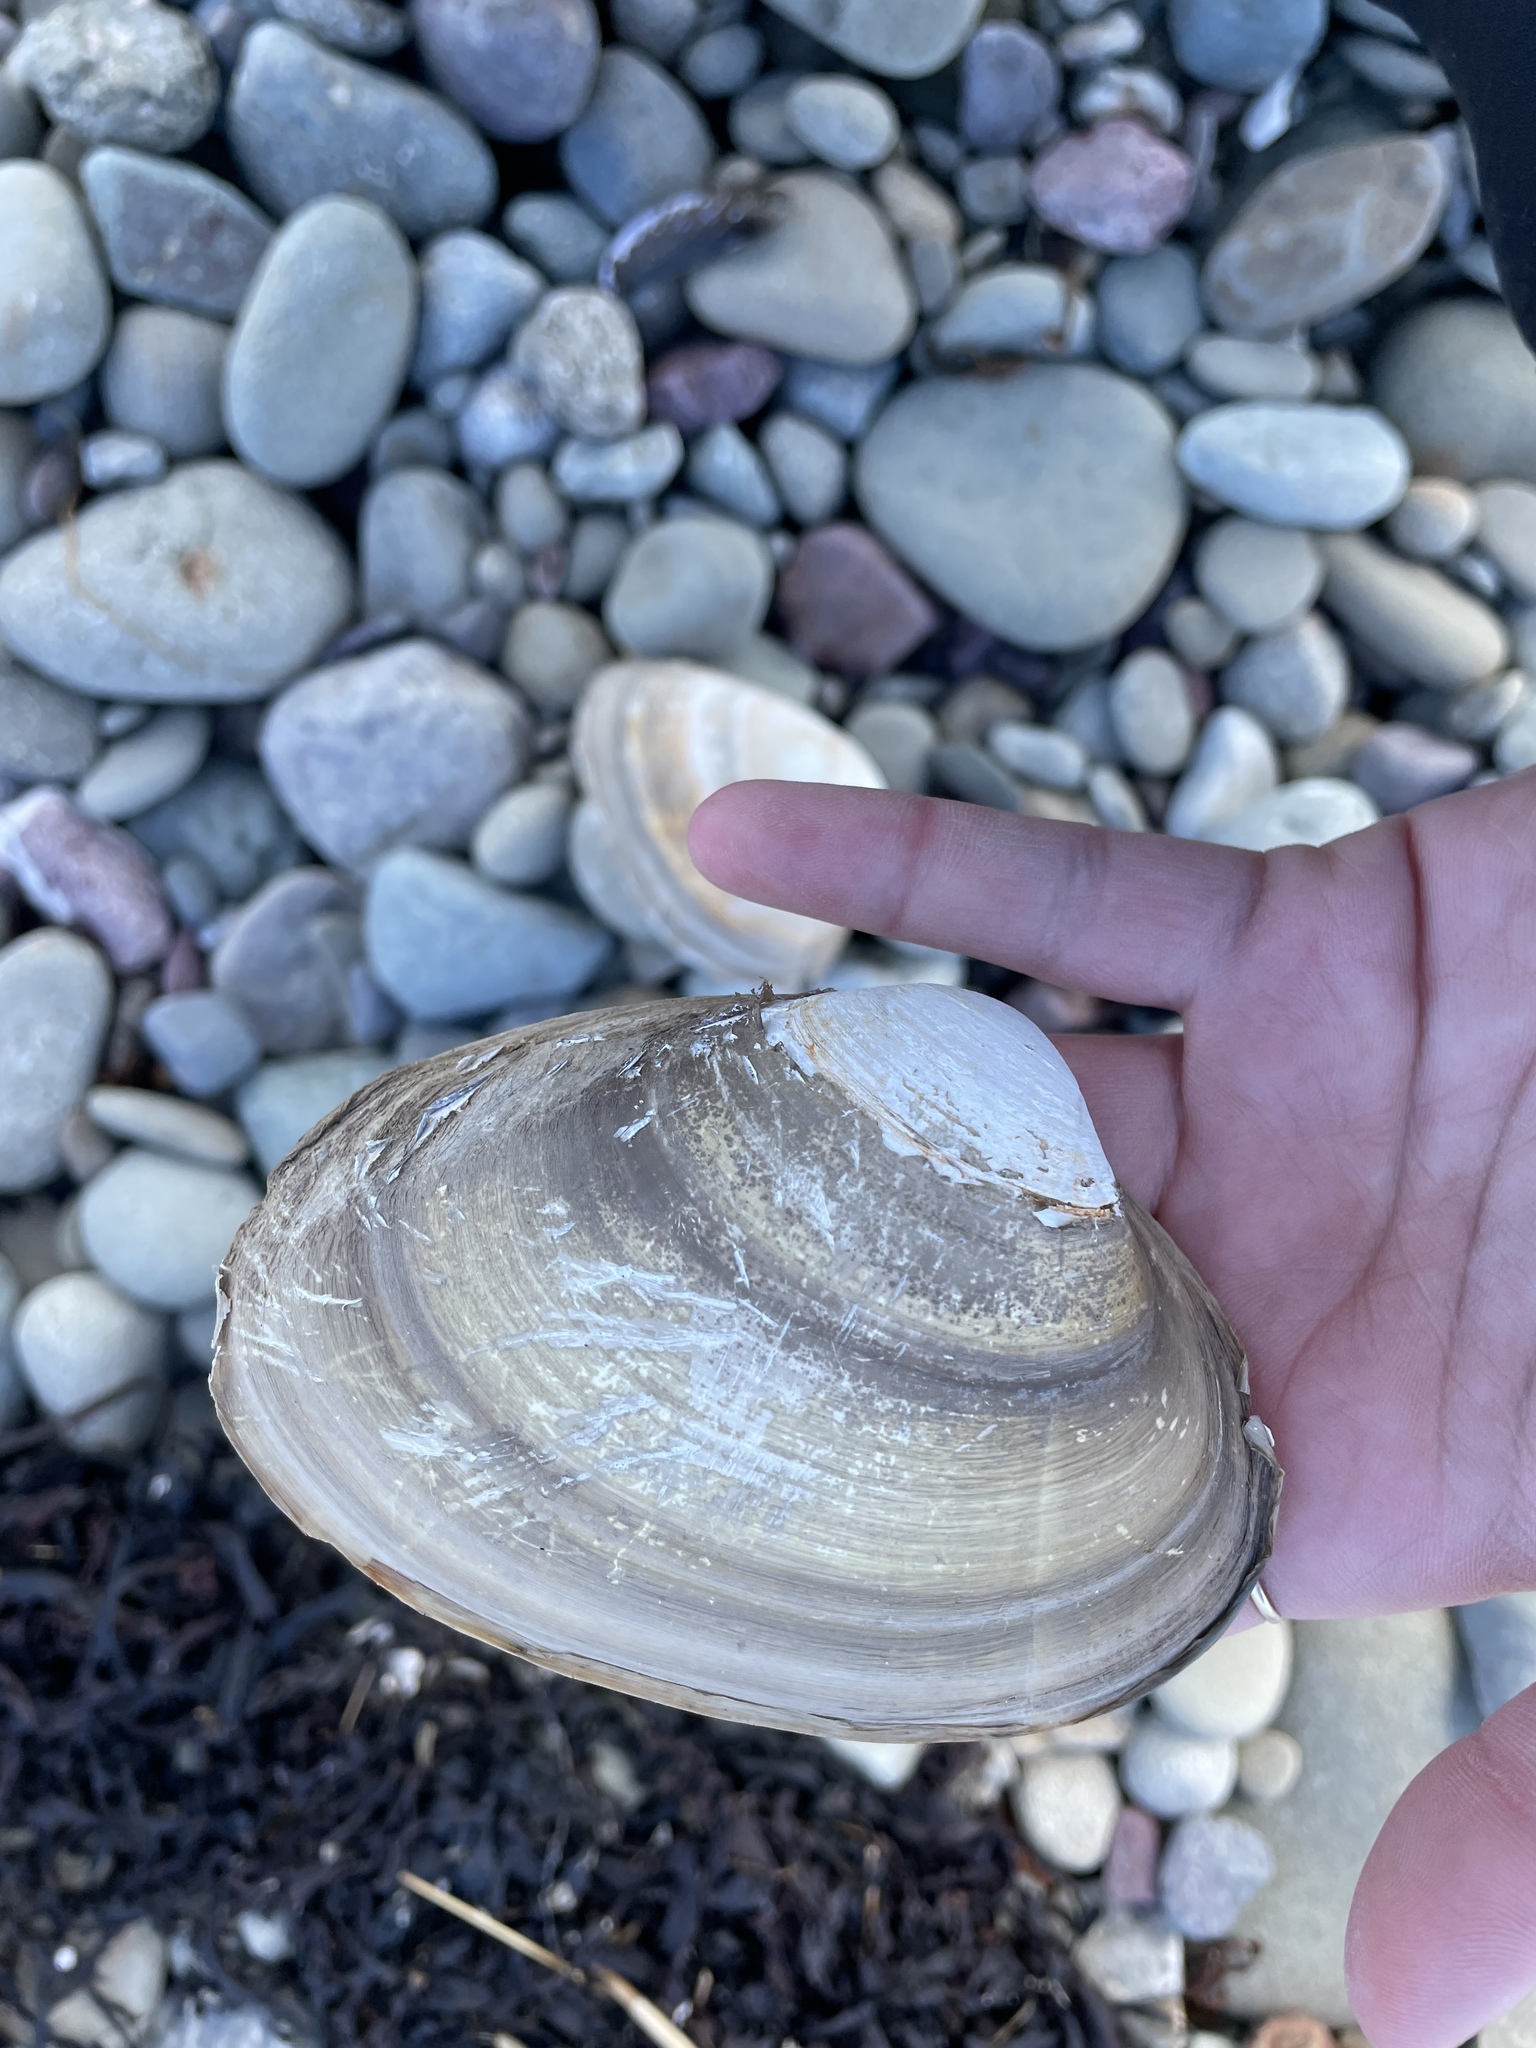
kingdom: Animalia
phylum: Mollusca
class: Bivalvia
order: Venerida
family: Mactridae
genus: Spisula
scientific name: Spisula solidissima
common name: Atlantic surf clam
